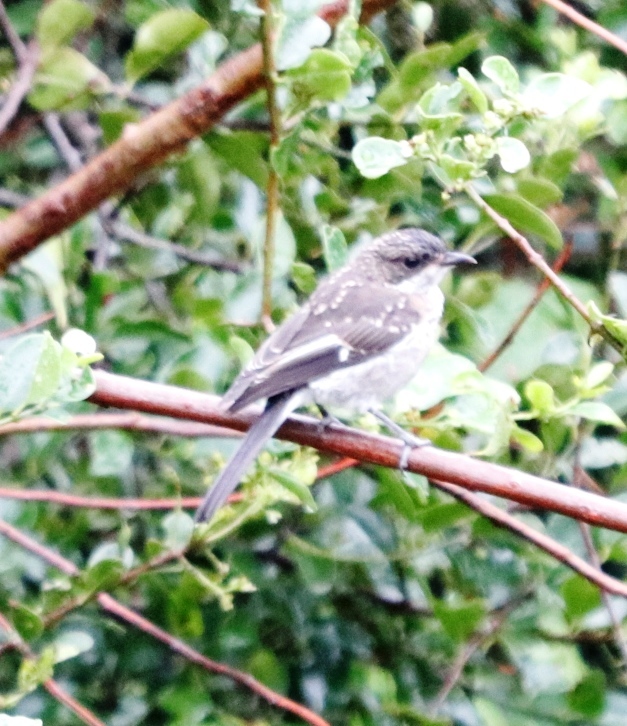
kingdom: Animalia
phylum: Chordata
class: Aves
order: Passeriformes
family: Muscicapidae
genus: Sigelus
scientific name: Sigelus silens
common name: Fiscal flycatcher
